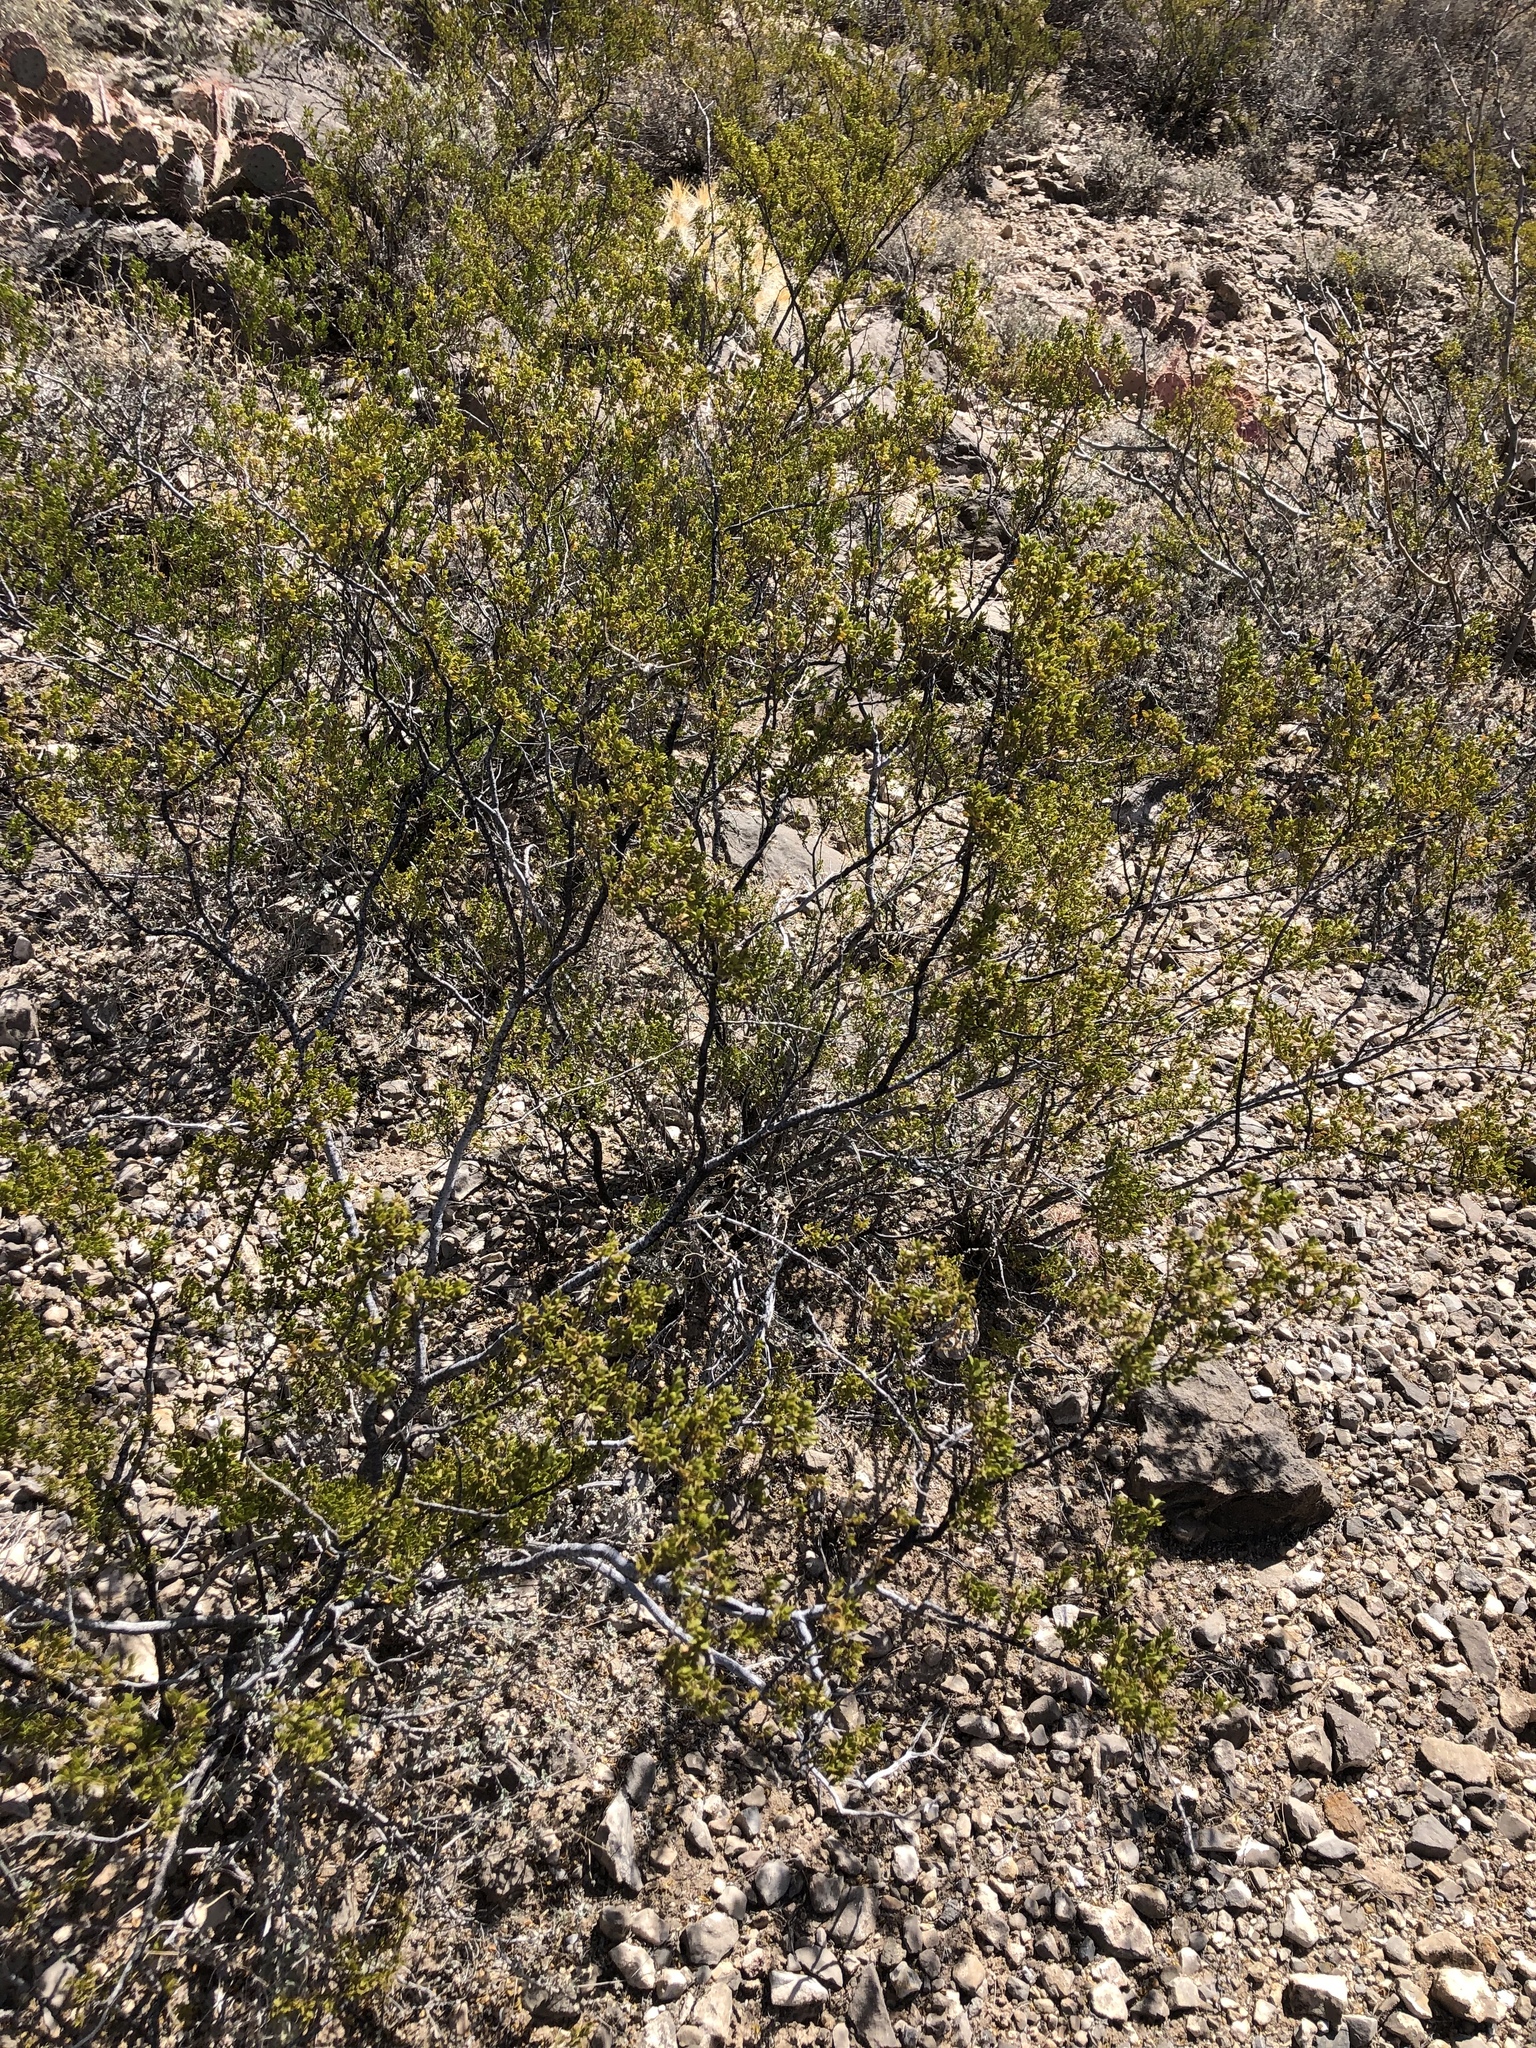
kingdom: Plantae
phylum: Tracheophyta
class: Magnoliopsida
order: Zygophyllales
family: Zygophyllaceae
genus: Larrea
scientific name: Larrea tridentata
